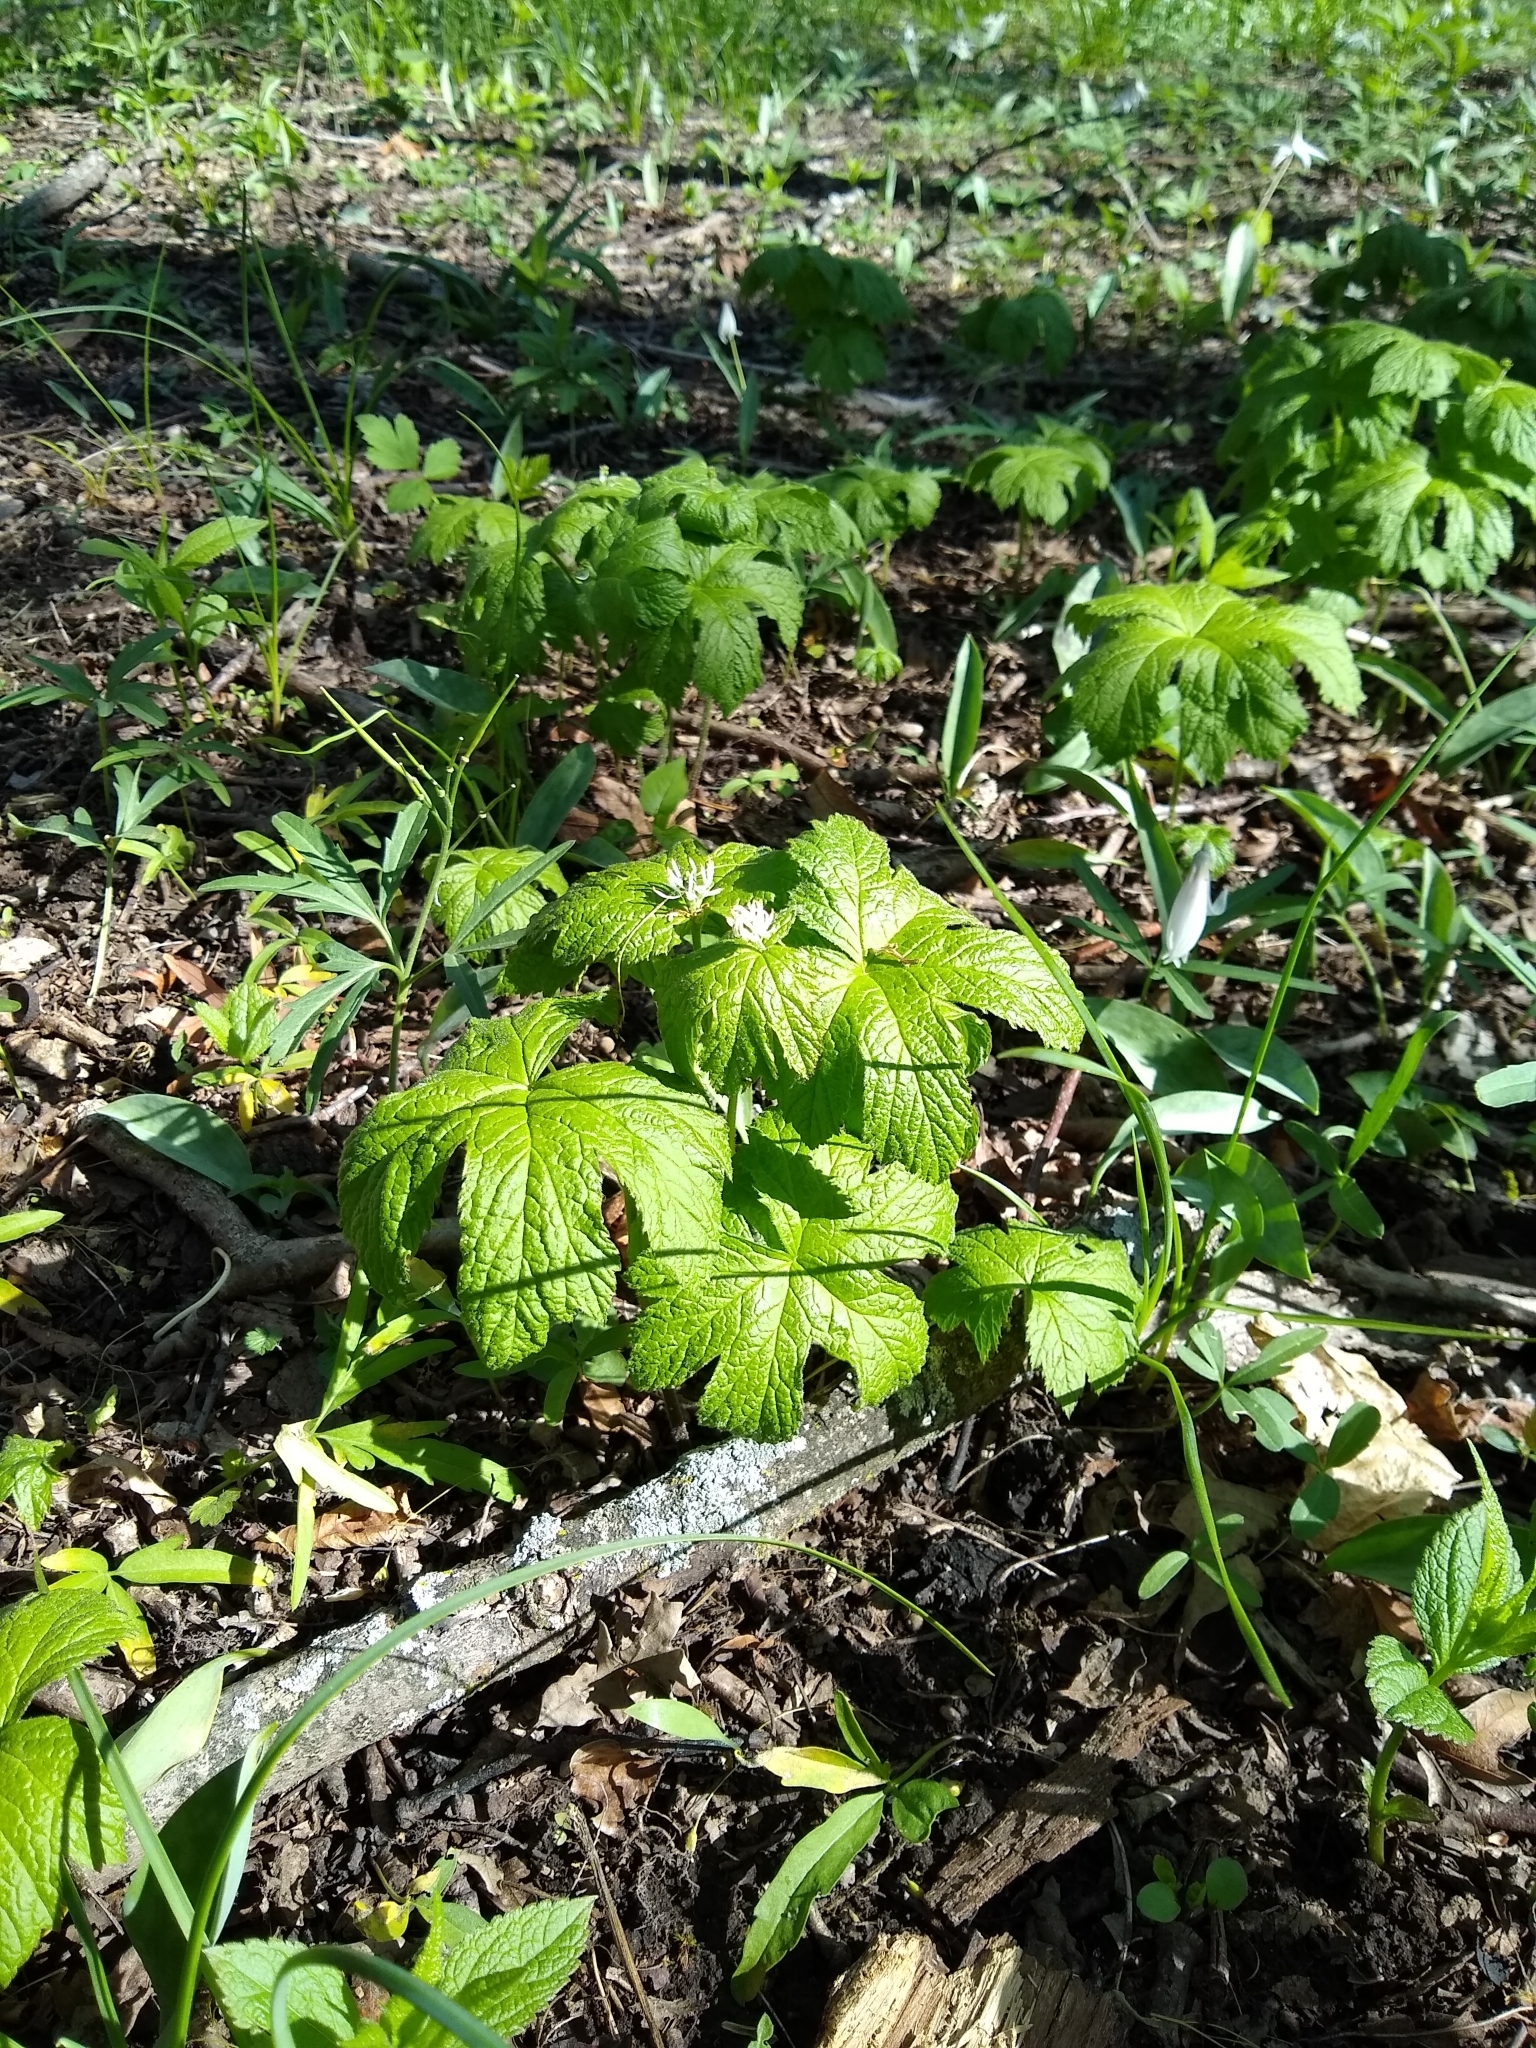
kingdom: Plantae
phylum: Tracheophyta
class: Magnoliopsida
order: Ranunculales
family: Ranunculaceae
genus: Hydrastis
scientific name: Hydrastis canadensis
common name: Goldenseal
